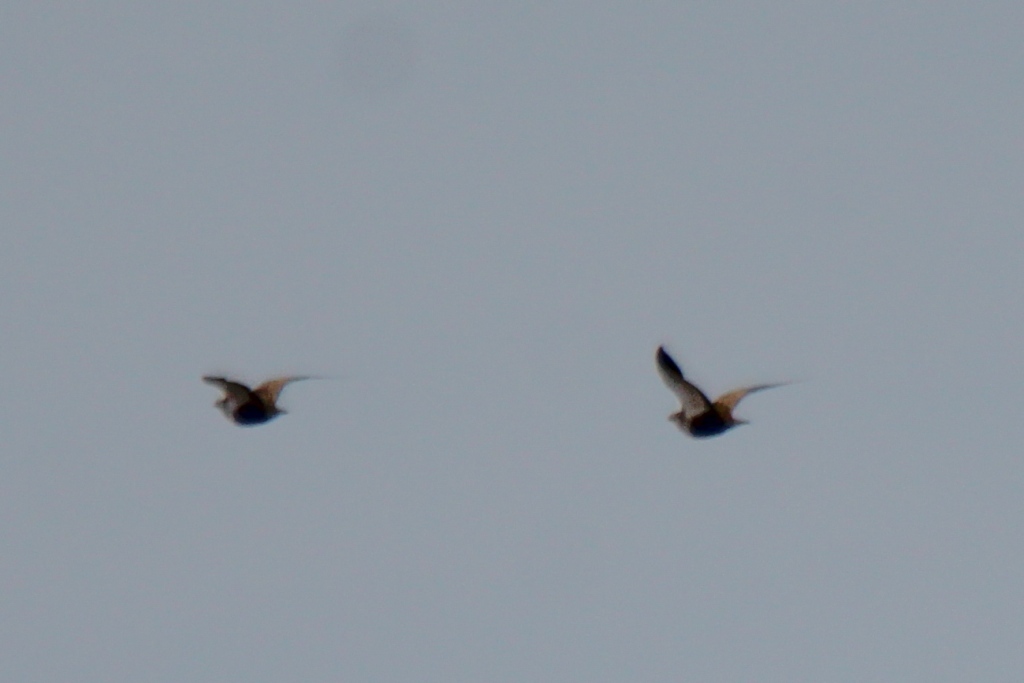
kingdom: Animalia
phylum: Chordata
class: Aves
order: Pteroclidiformes
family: Pteroclididae
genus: Pterocles
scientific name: Pterocles orientalis
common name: Black-bellied sandgrouse
